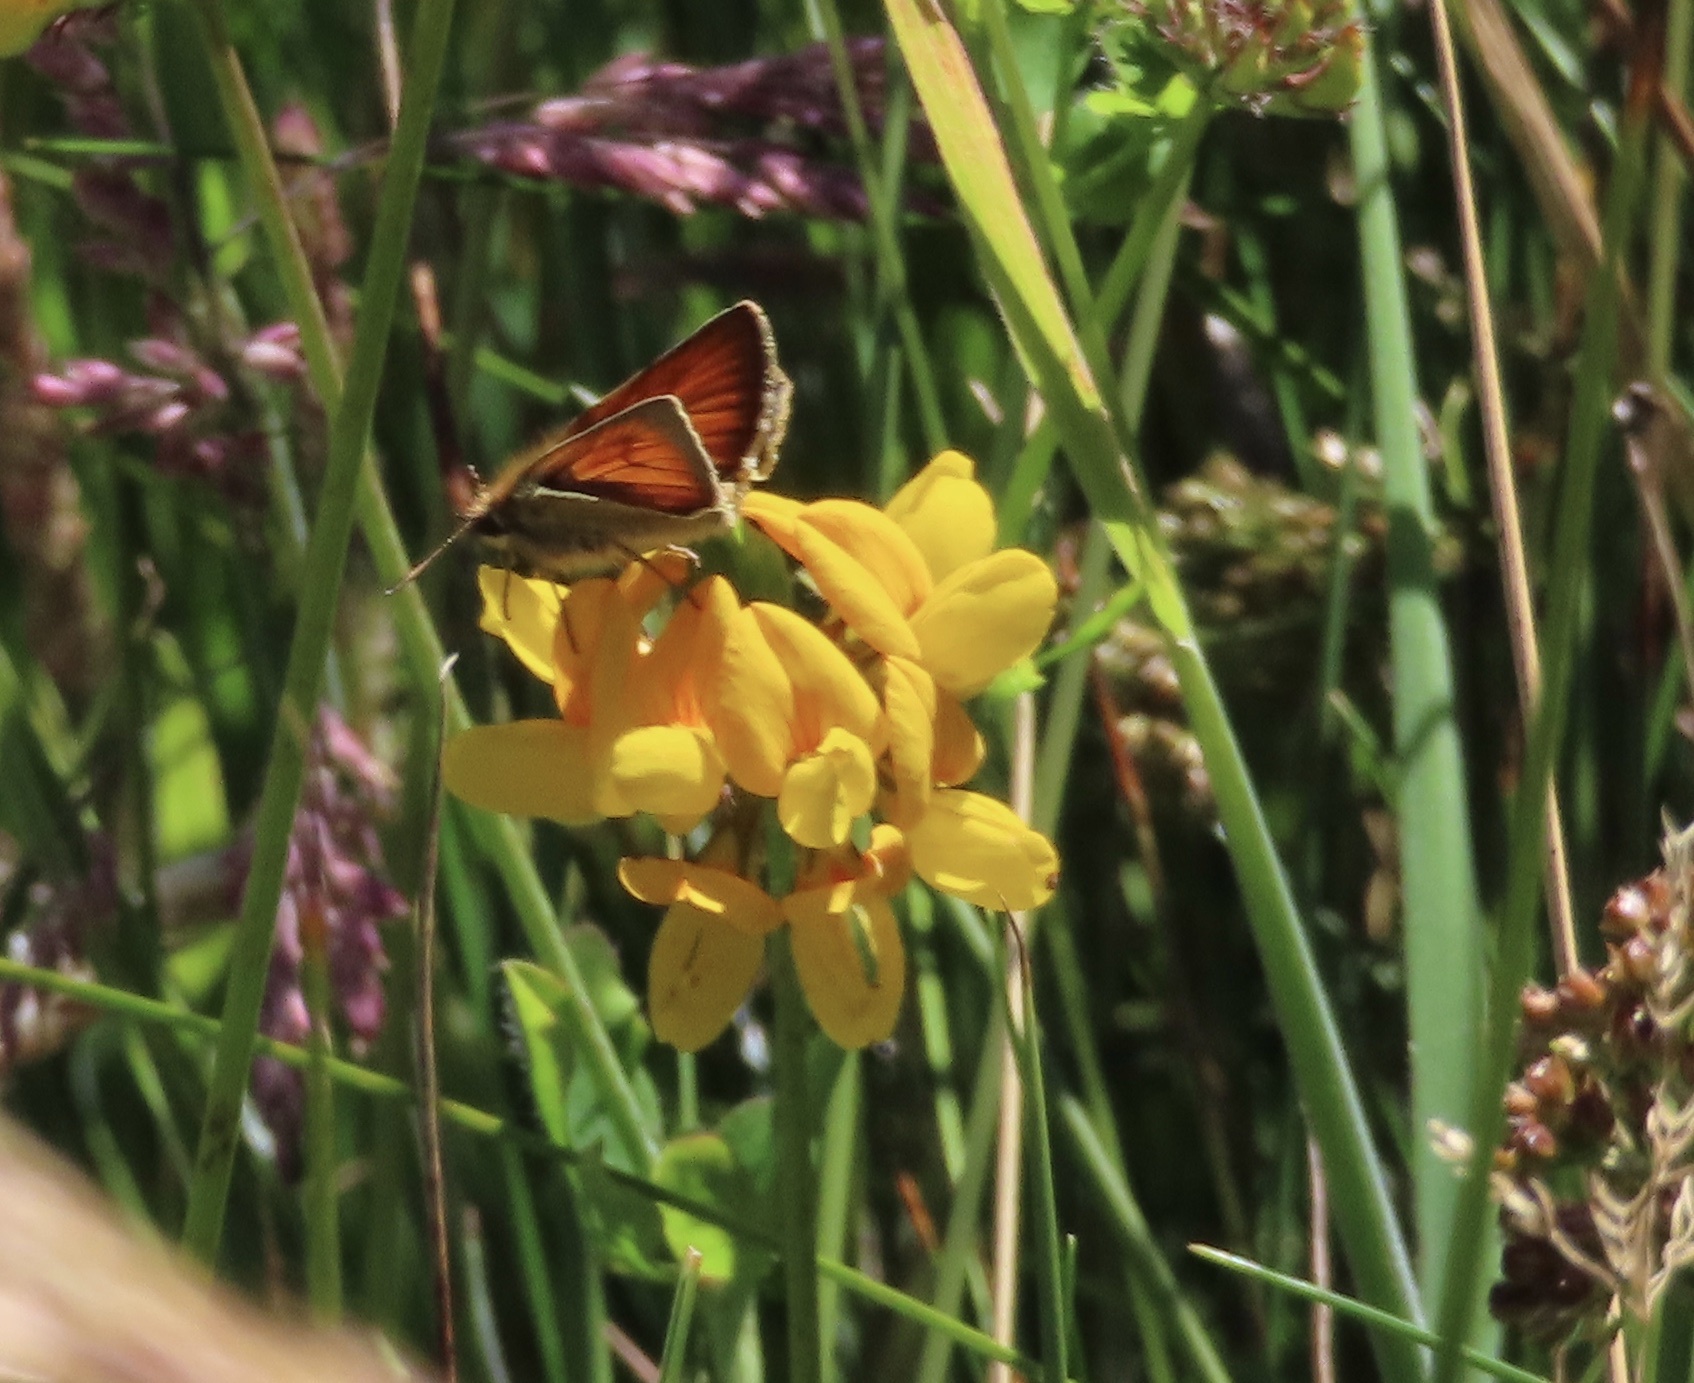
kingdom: Animalia
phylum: Arthropoda
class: Insecta
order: Lepidoptera
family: Hesperiidae
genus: Thymelicus
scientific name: Thymelicus sylvestris
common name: Small skipper
